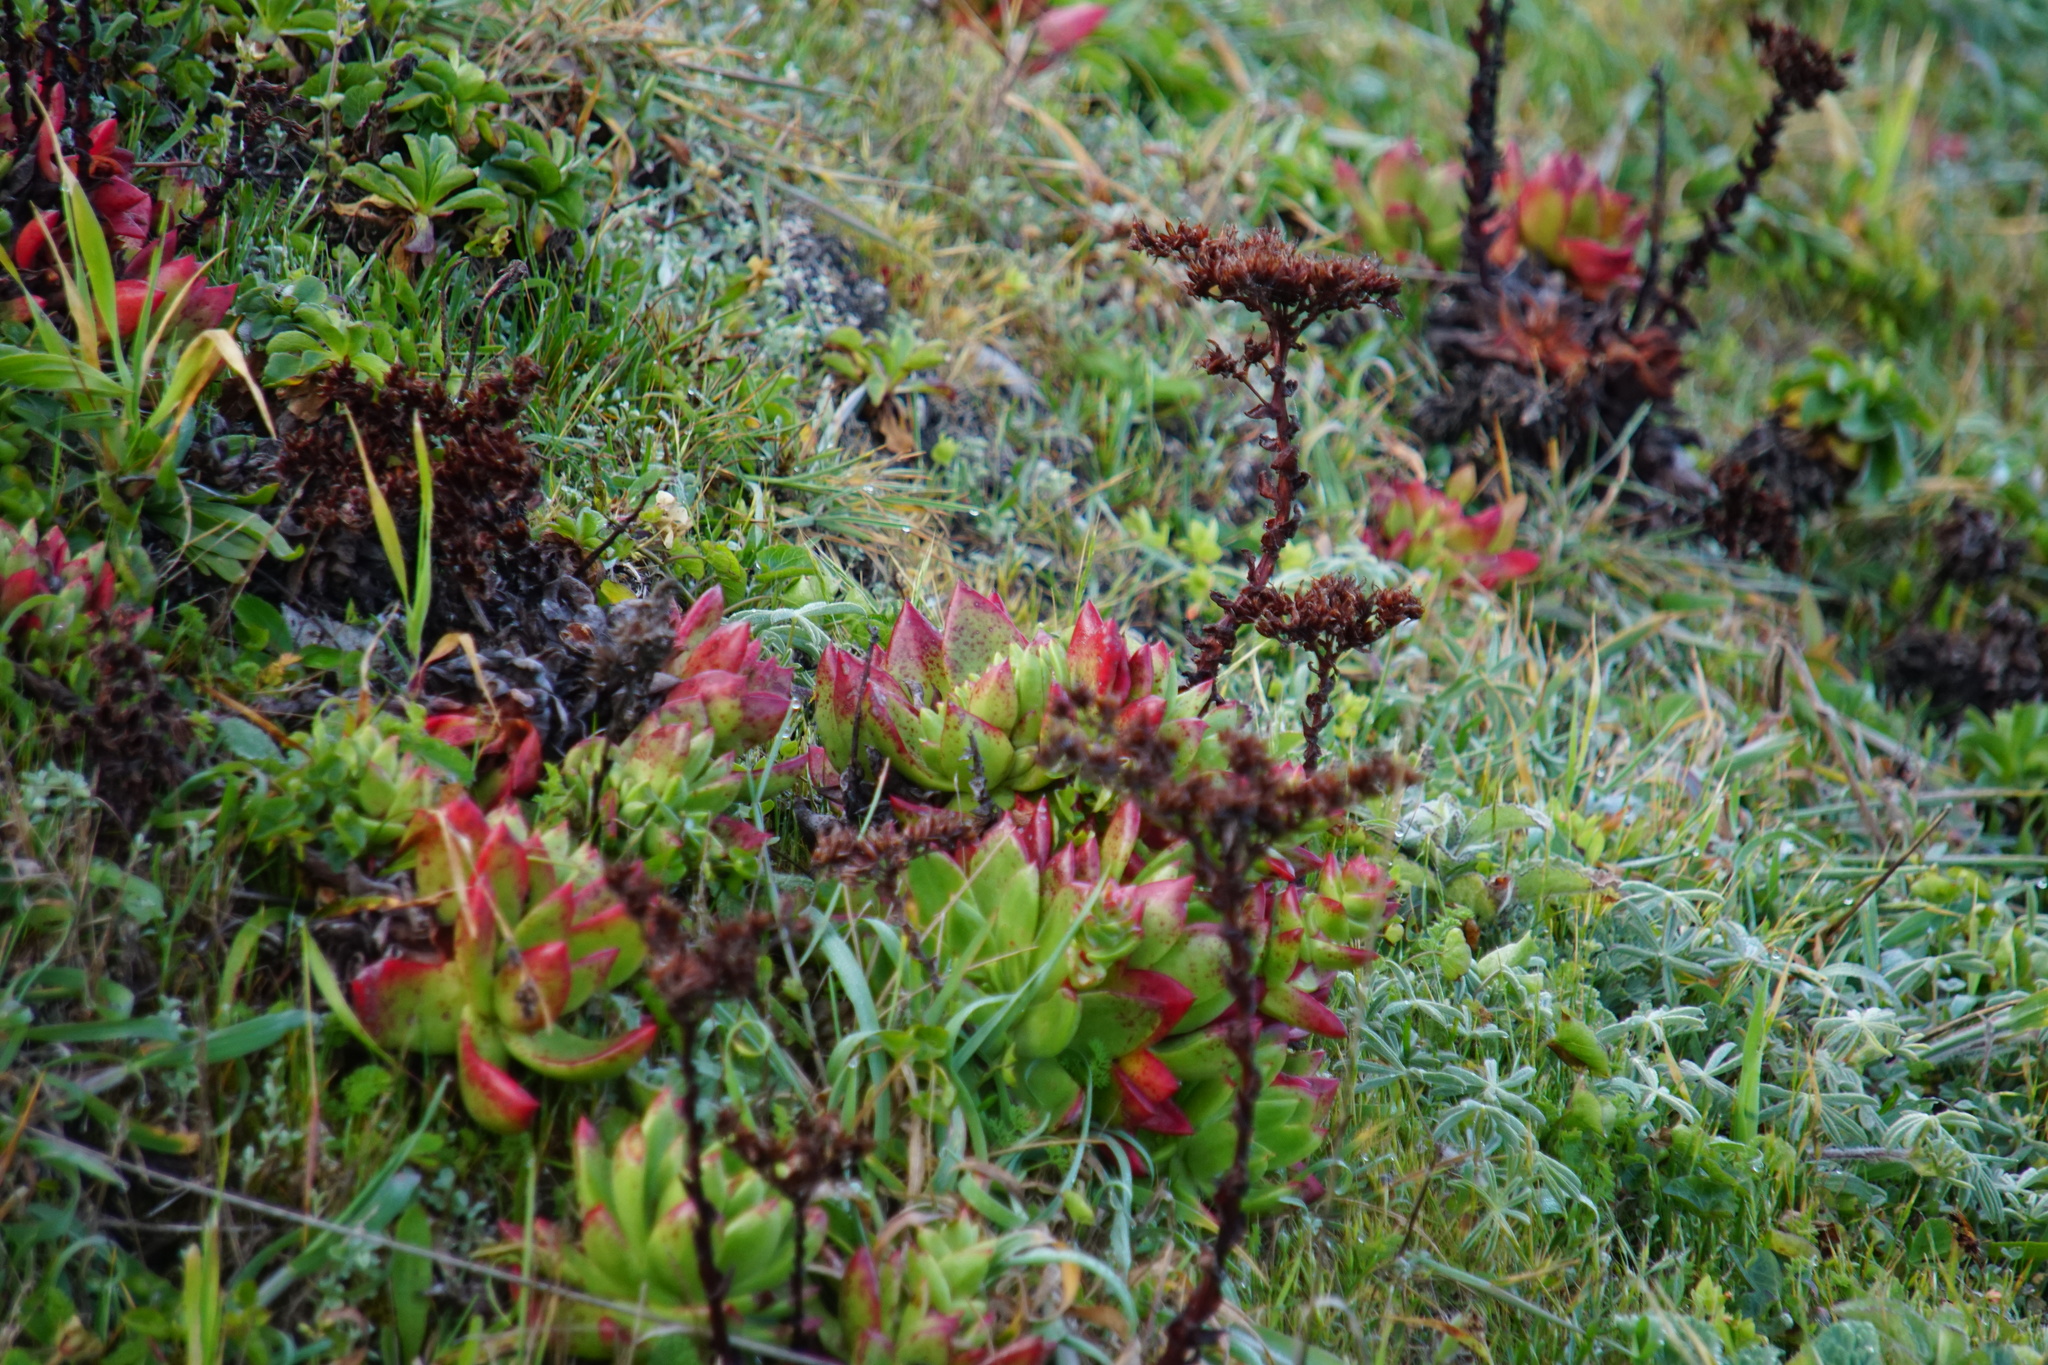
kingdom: Plantae
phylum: Tracheophyta
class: Magnoliopsida
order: Saxifragales
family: Crassulaceae
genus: Dudleya
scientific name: Dudleya farinosa
